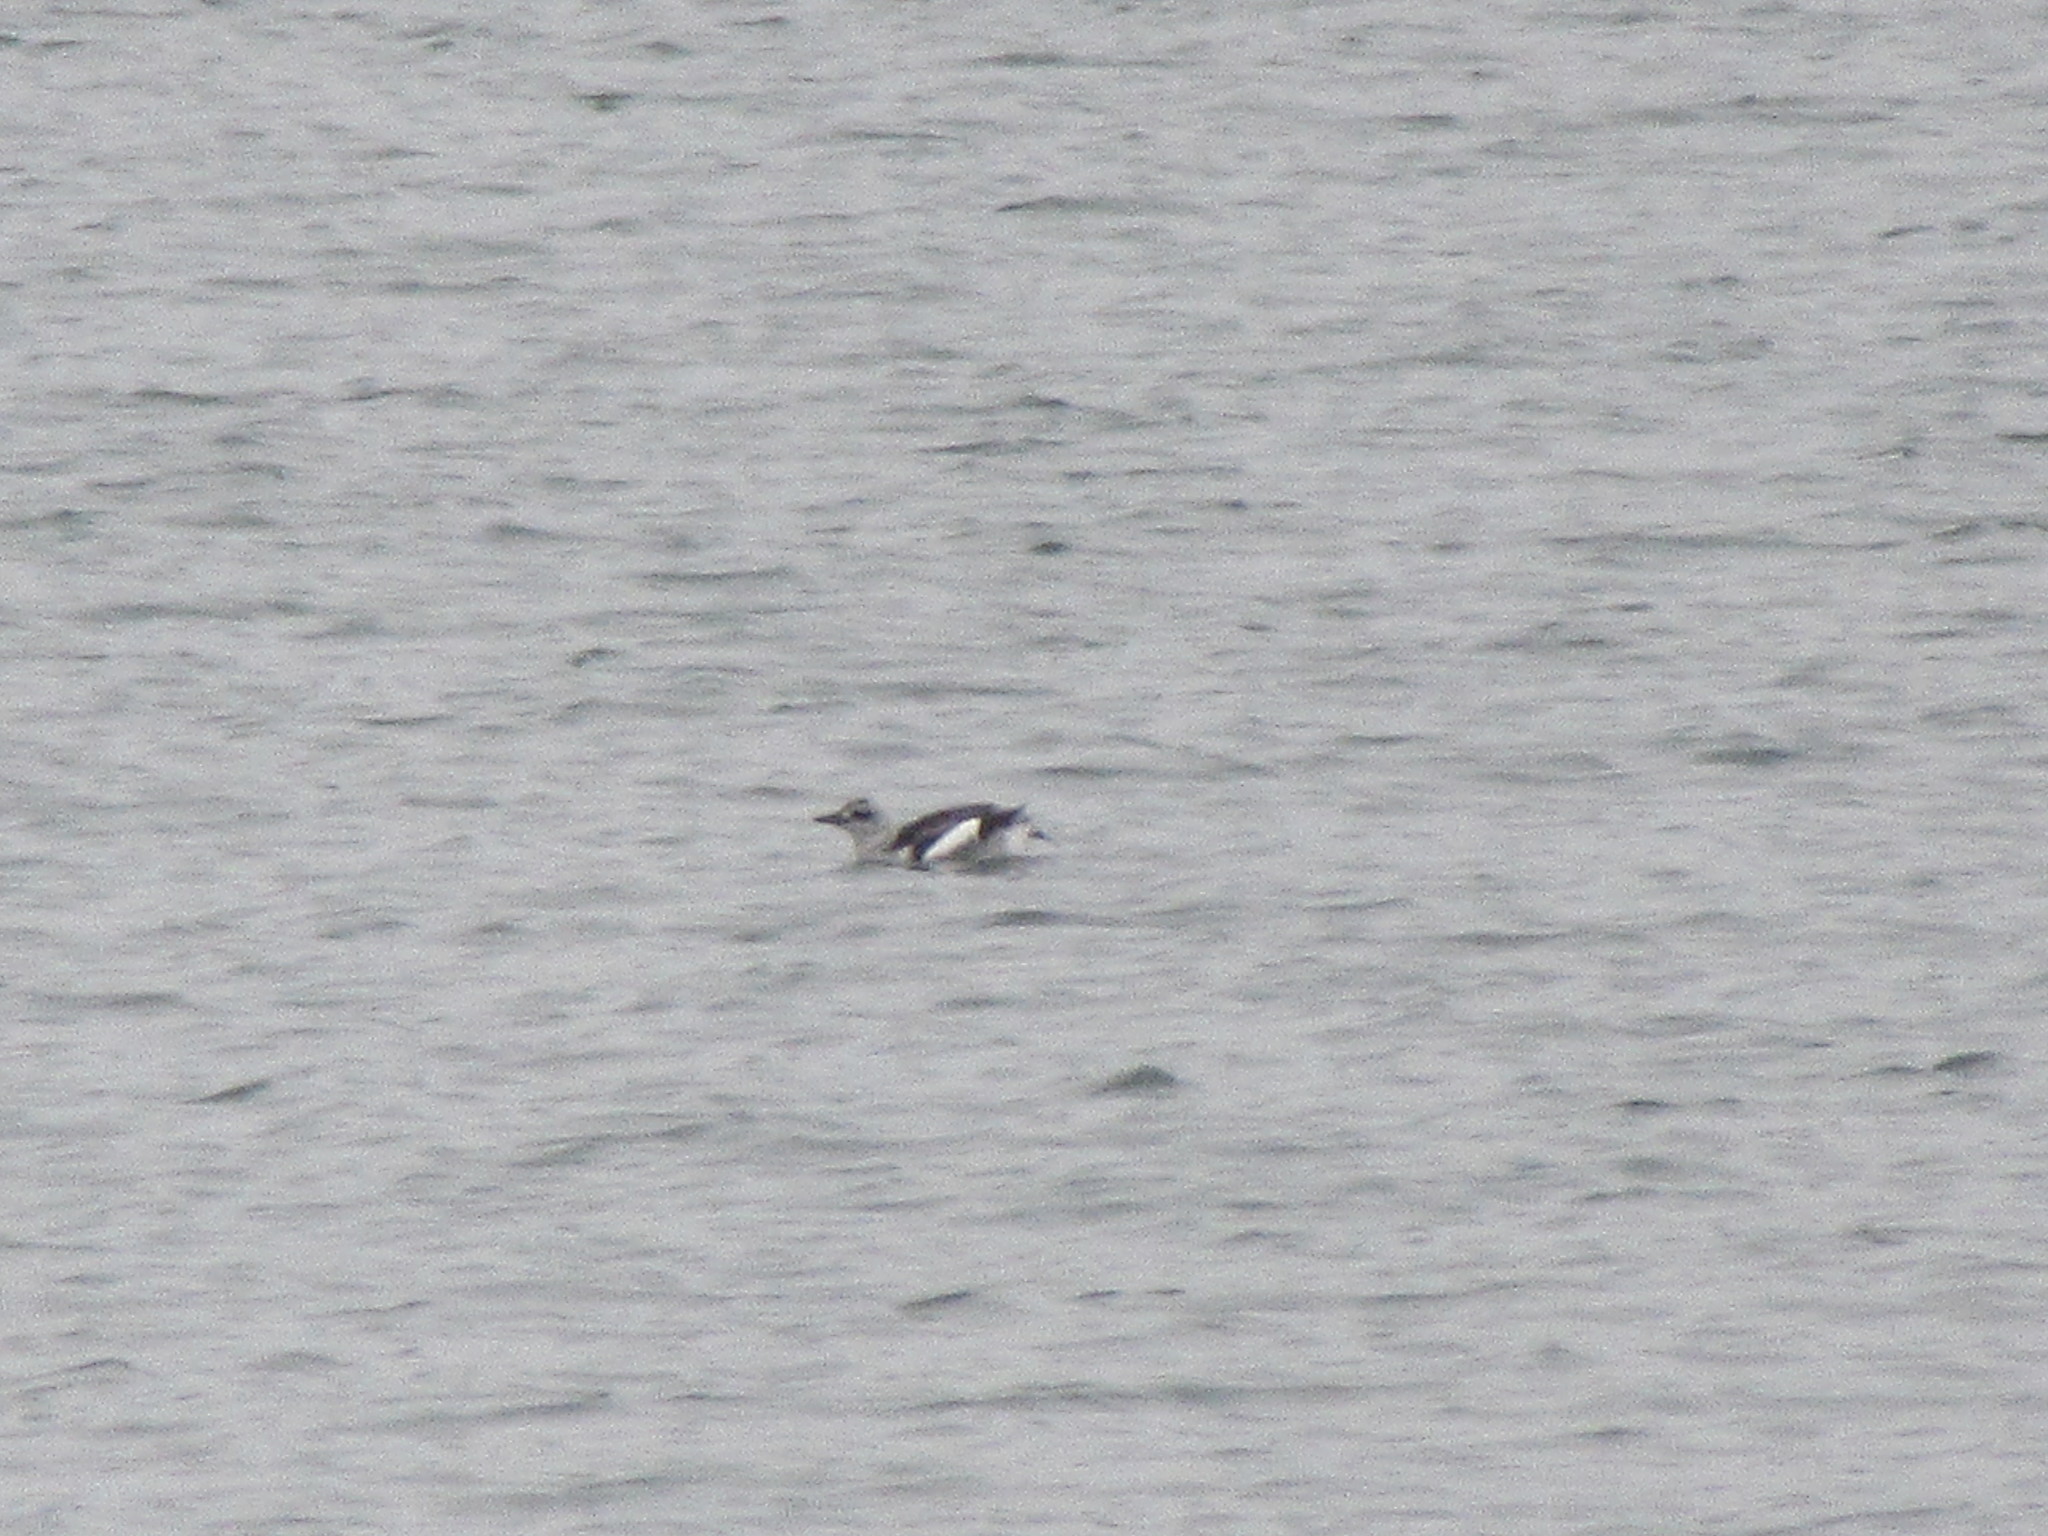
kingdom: Animalia
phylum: Chordata
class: Aves
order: Charadriiformes
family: Alcidae
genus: Cepphus
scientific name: Cepphus grylle
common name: Black guillemot
